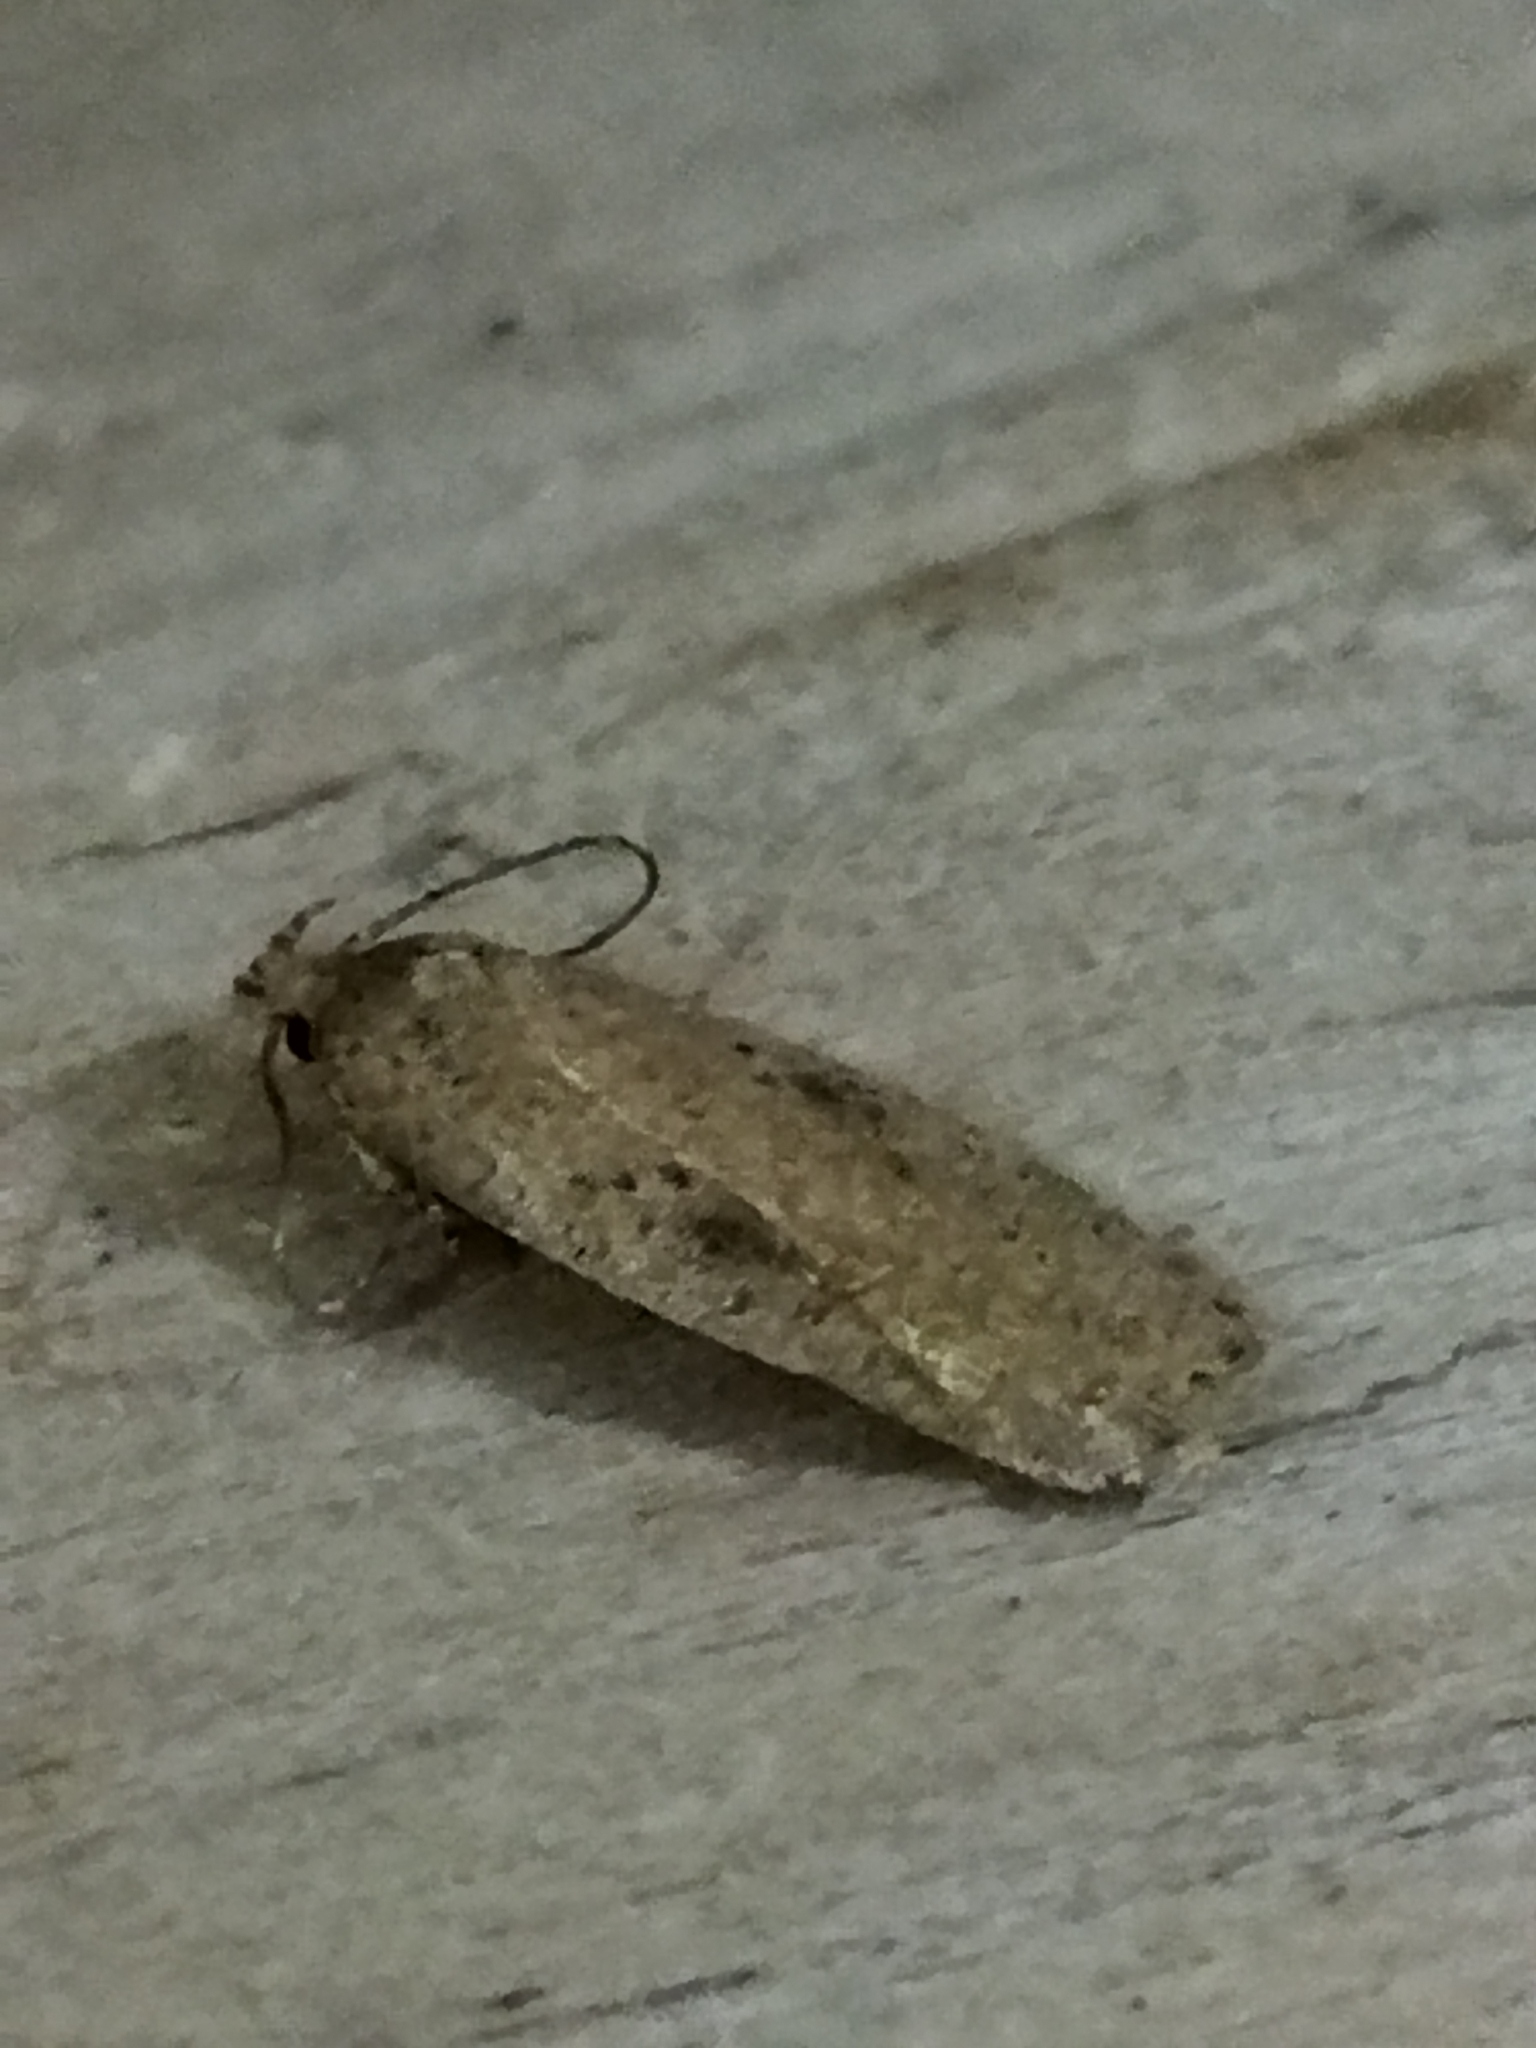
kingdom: Animalia
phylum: Arthropoda
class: Insecta
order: Lepidoptera
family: Depressariidae
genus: Agonopterix
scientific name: Agonopterix arenella
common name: Brindled flat-body
